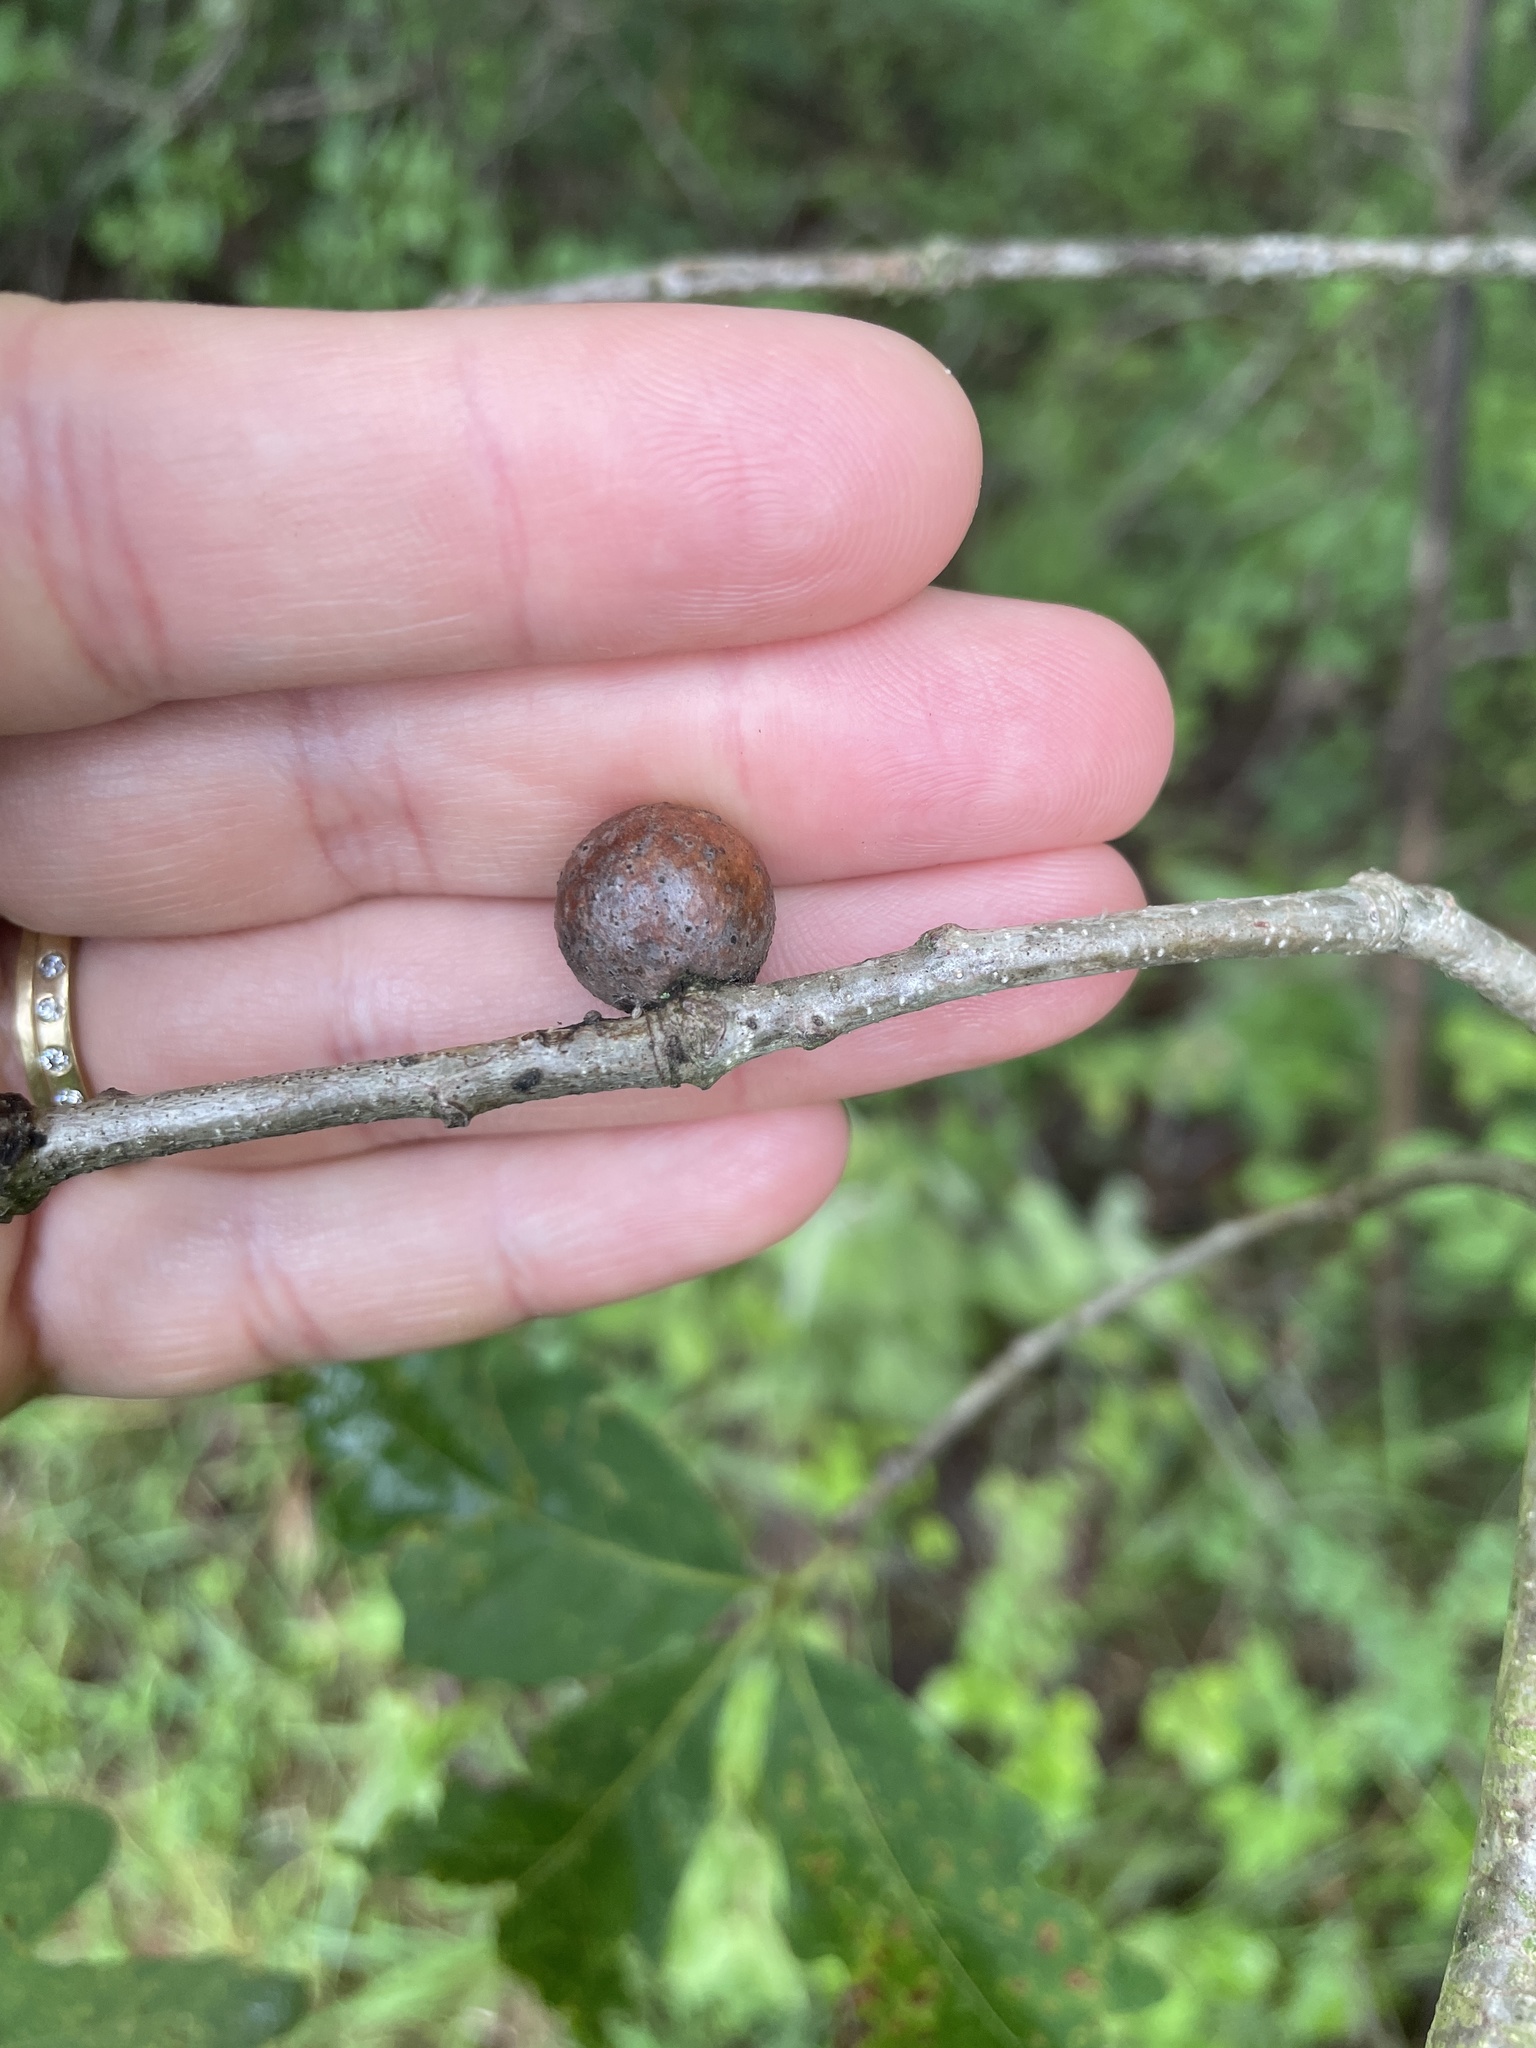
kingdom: Animalia
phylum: Arthropoda
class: Insecta
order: Hymenoptera
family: Cynipidae
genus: Disholcaspis
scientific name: Disholcaspis quercusglobulus
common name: Round bullet gall wasp
